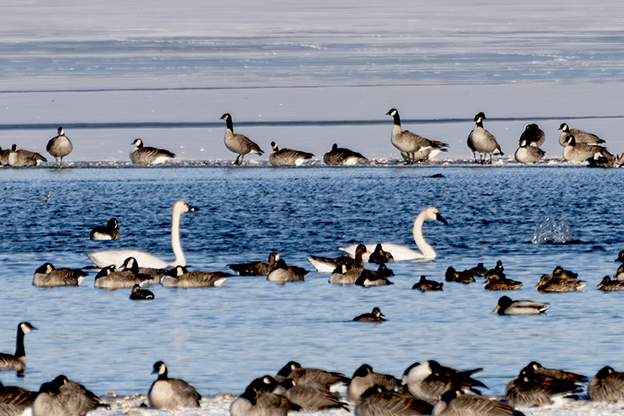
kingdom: Animalia
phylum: Chordata
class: Aves
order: Anseriformes
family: Anatidae
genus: Cygnus
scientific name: Cygnus columbianus
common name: Tundra swan
